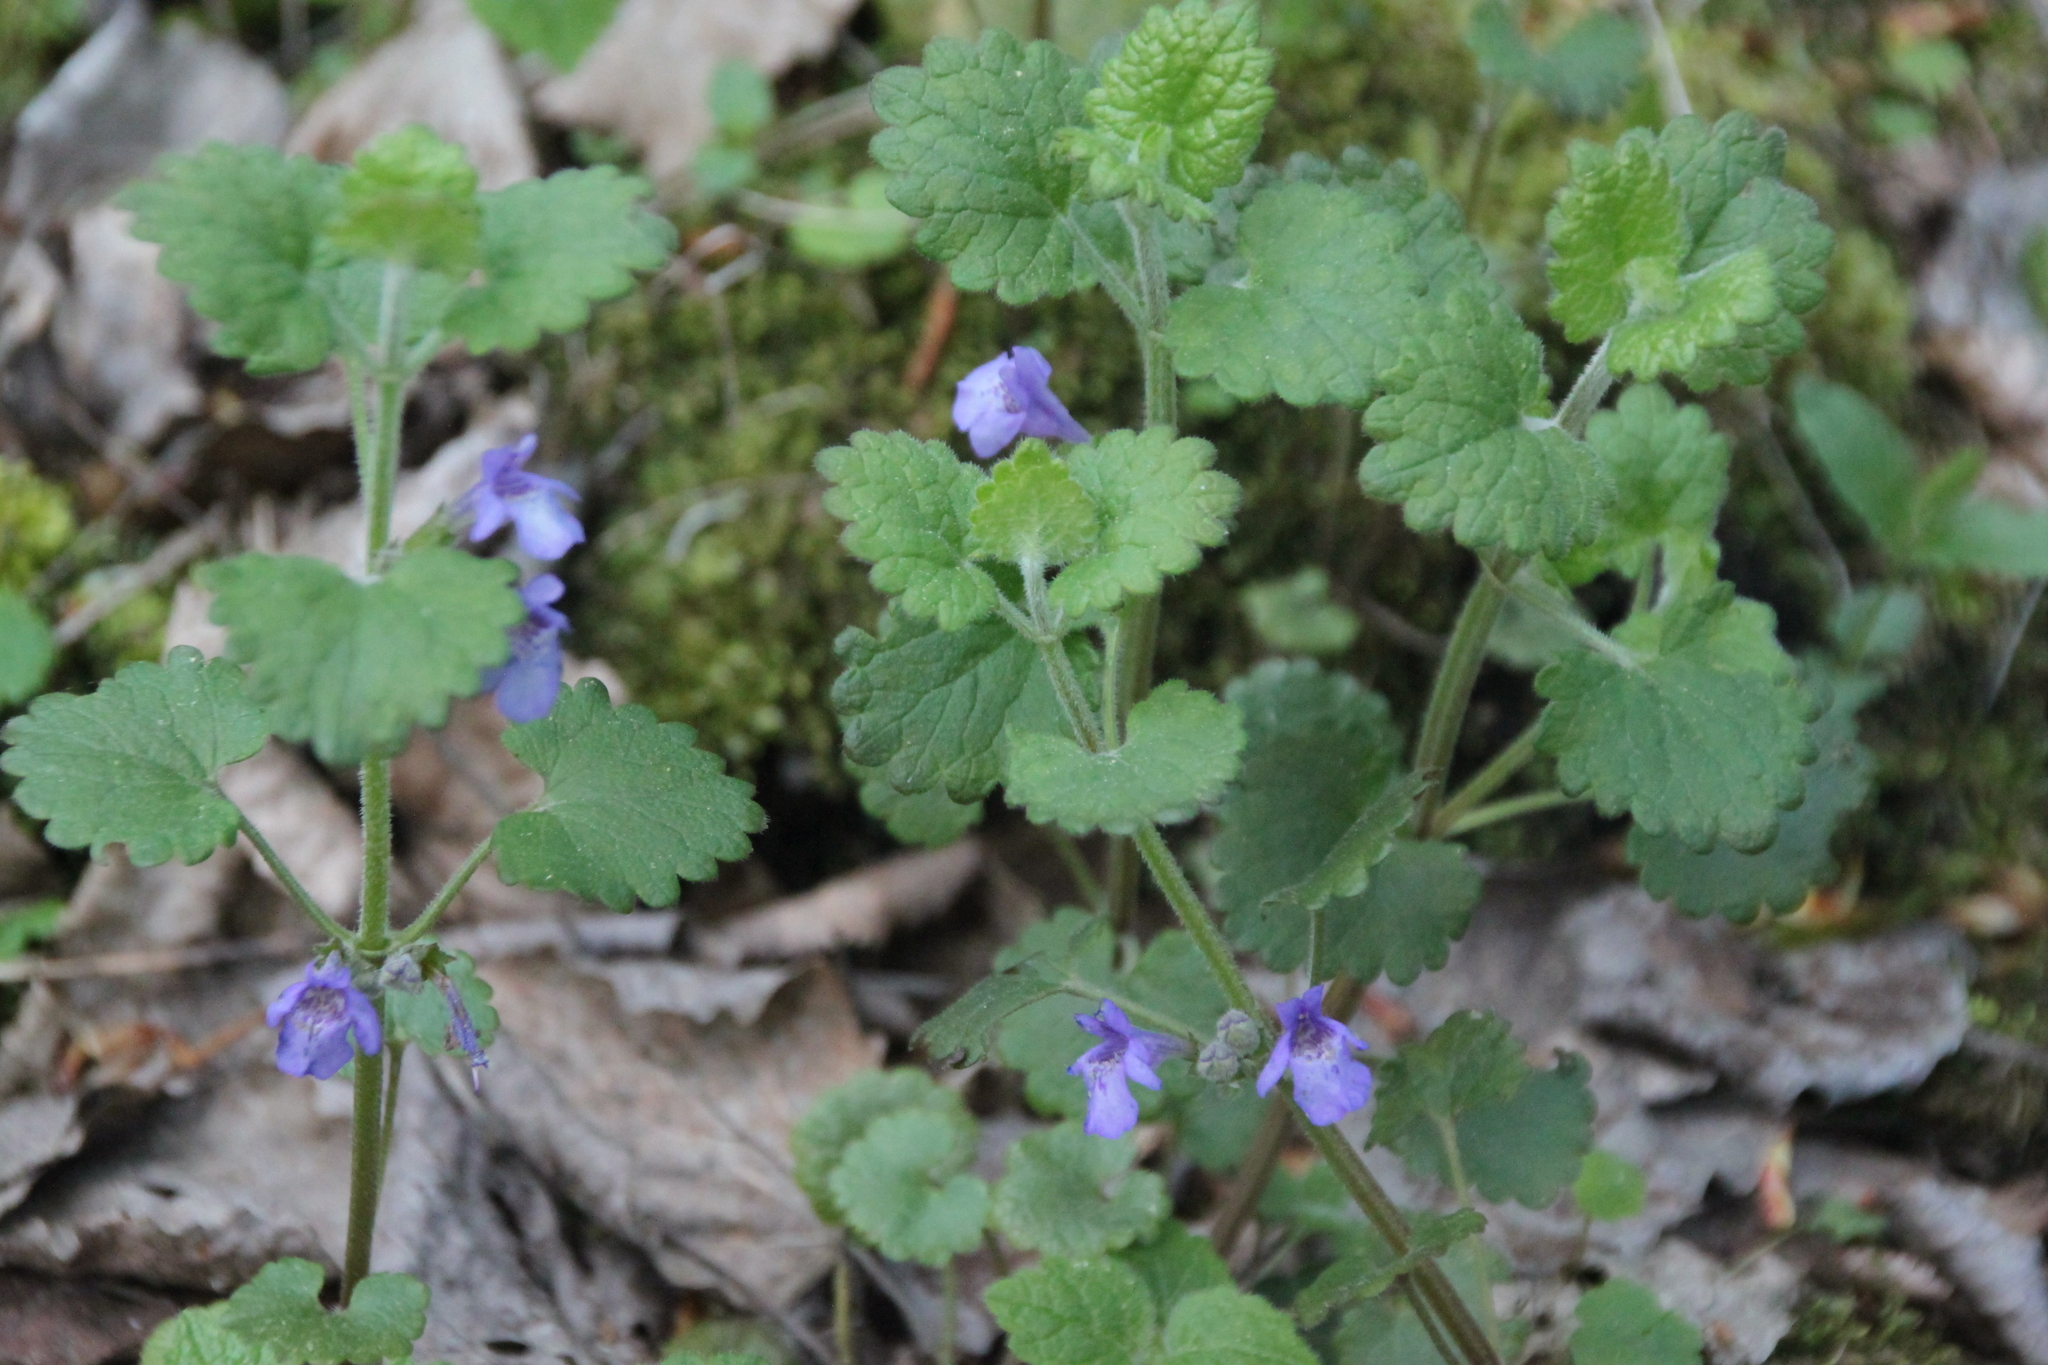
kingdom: Plantae
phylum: Tracheophyta
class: Magnoliopsida
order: Lamiales
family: Lamiaceae
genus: Glechoma
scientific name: Glechoma hederacea
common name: Ground ivy
